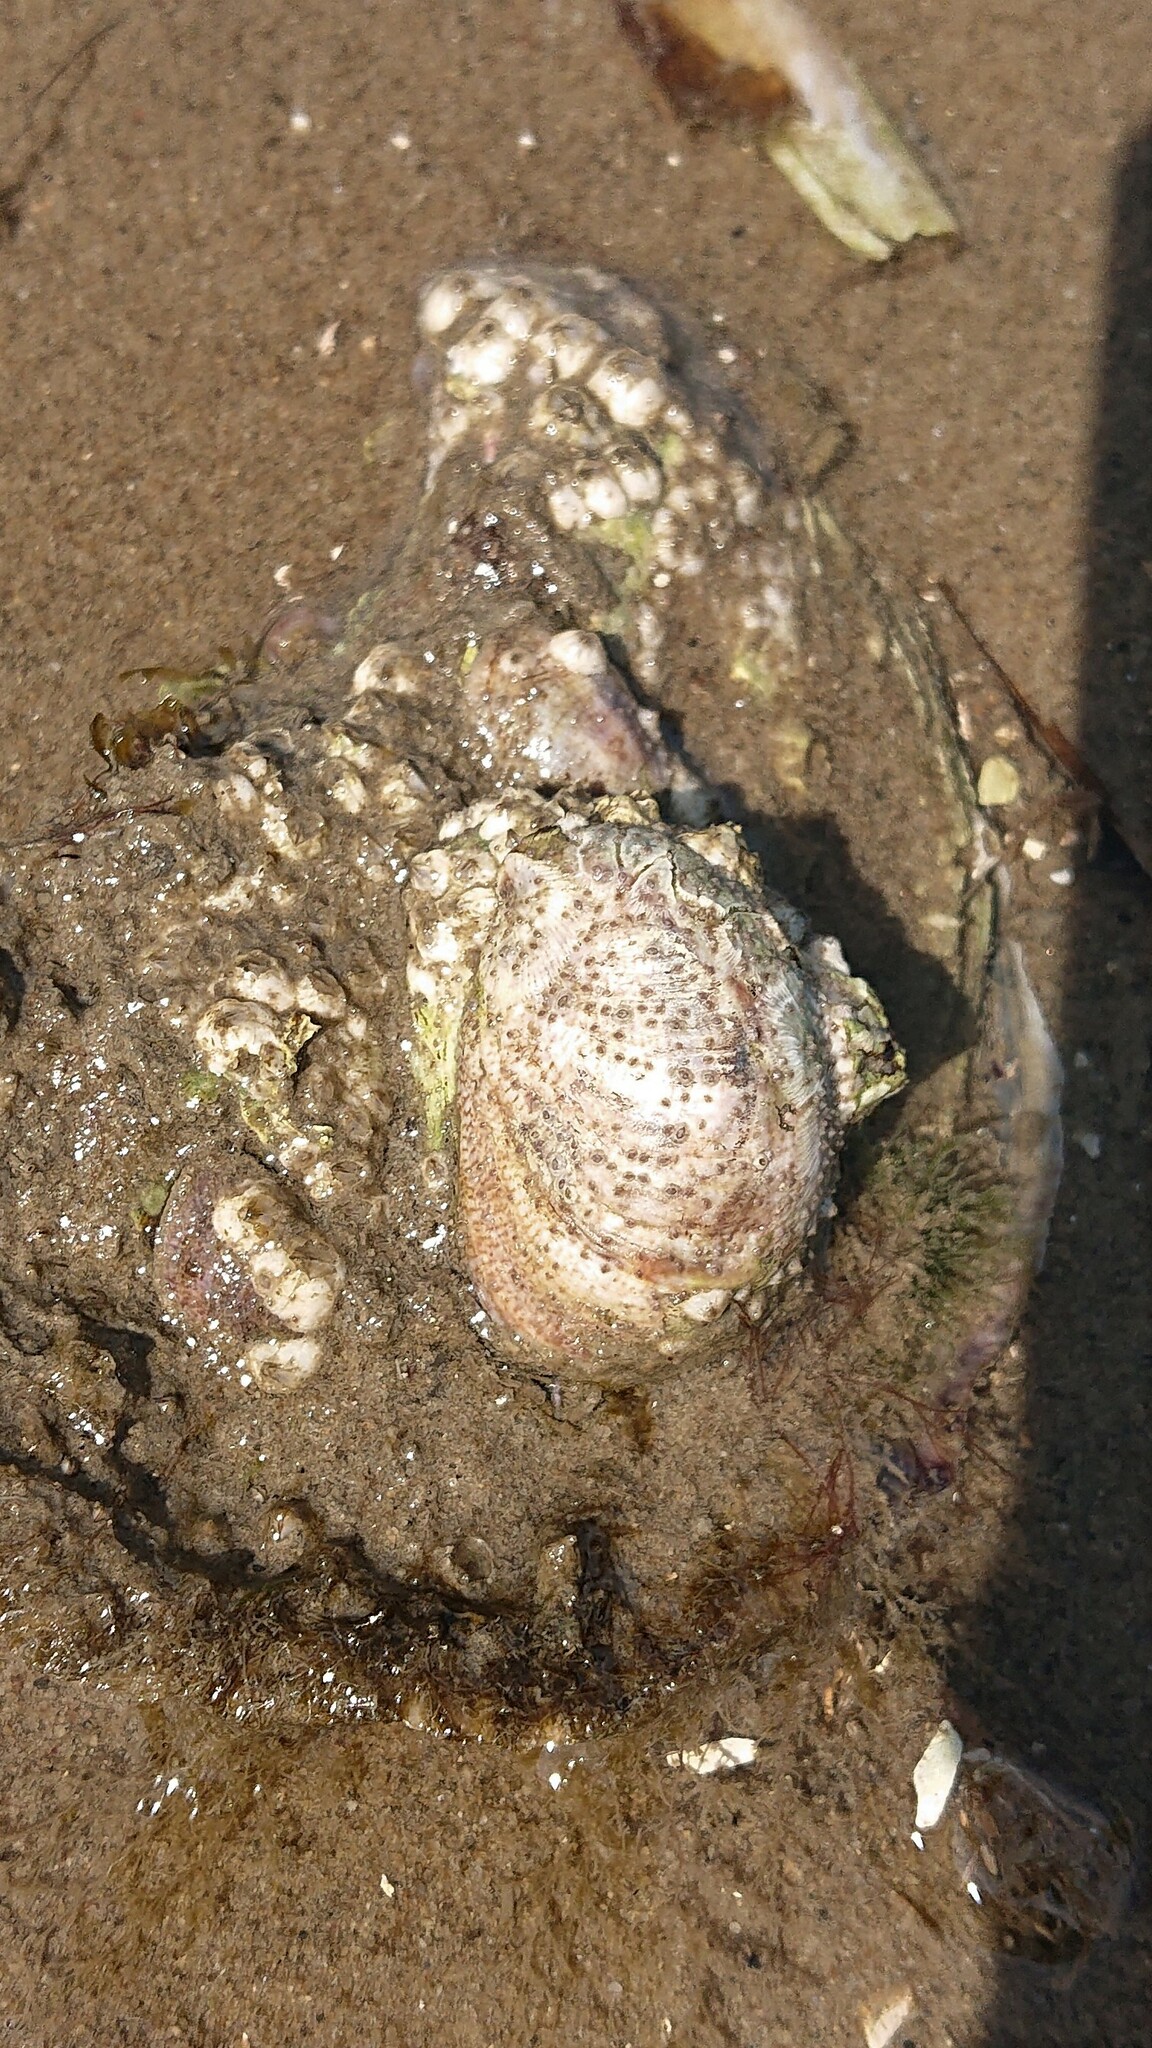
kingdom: Animalia
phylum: Mollusca
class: Gastropoda
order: Littorinimorpha
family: Calyptraeidae
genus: Crepidula
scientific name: Crepidula fornicata
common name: Slipper limpet
